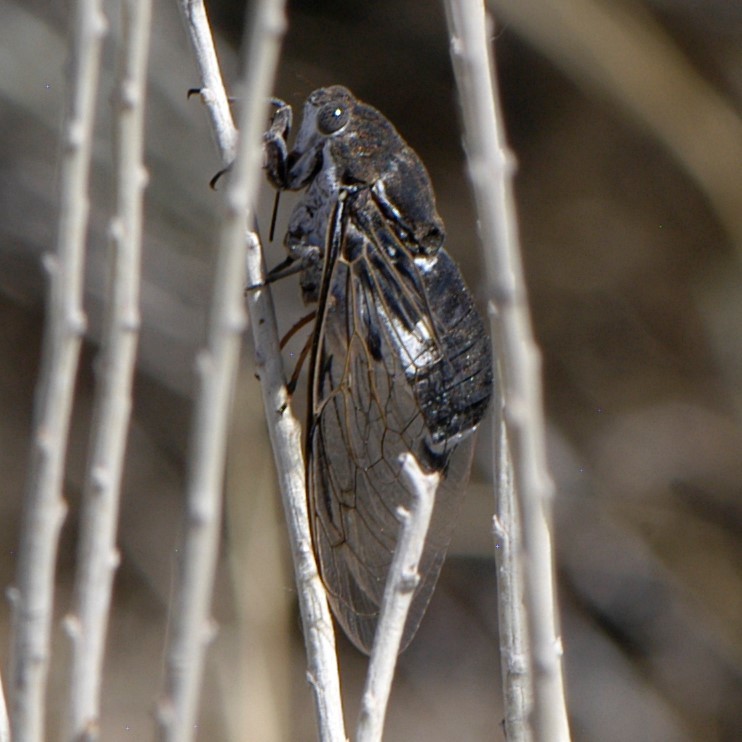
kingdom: Animalia
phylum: Arthropoda
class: Insecta
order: Hemiptera
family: Cicadidae
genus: Cacama
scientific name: Cacama valvata
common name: Cactus dodger
